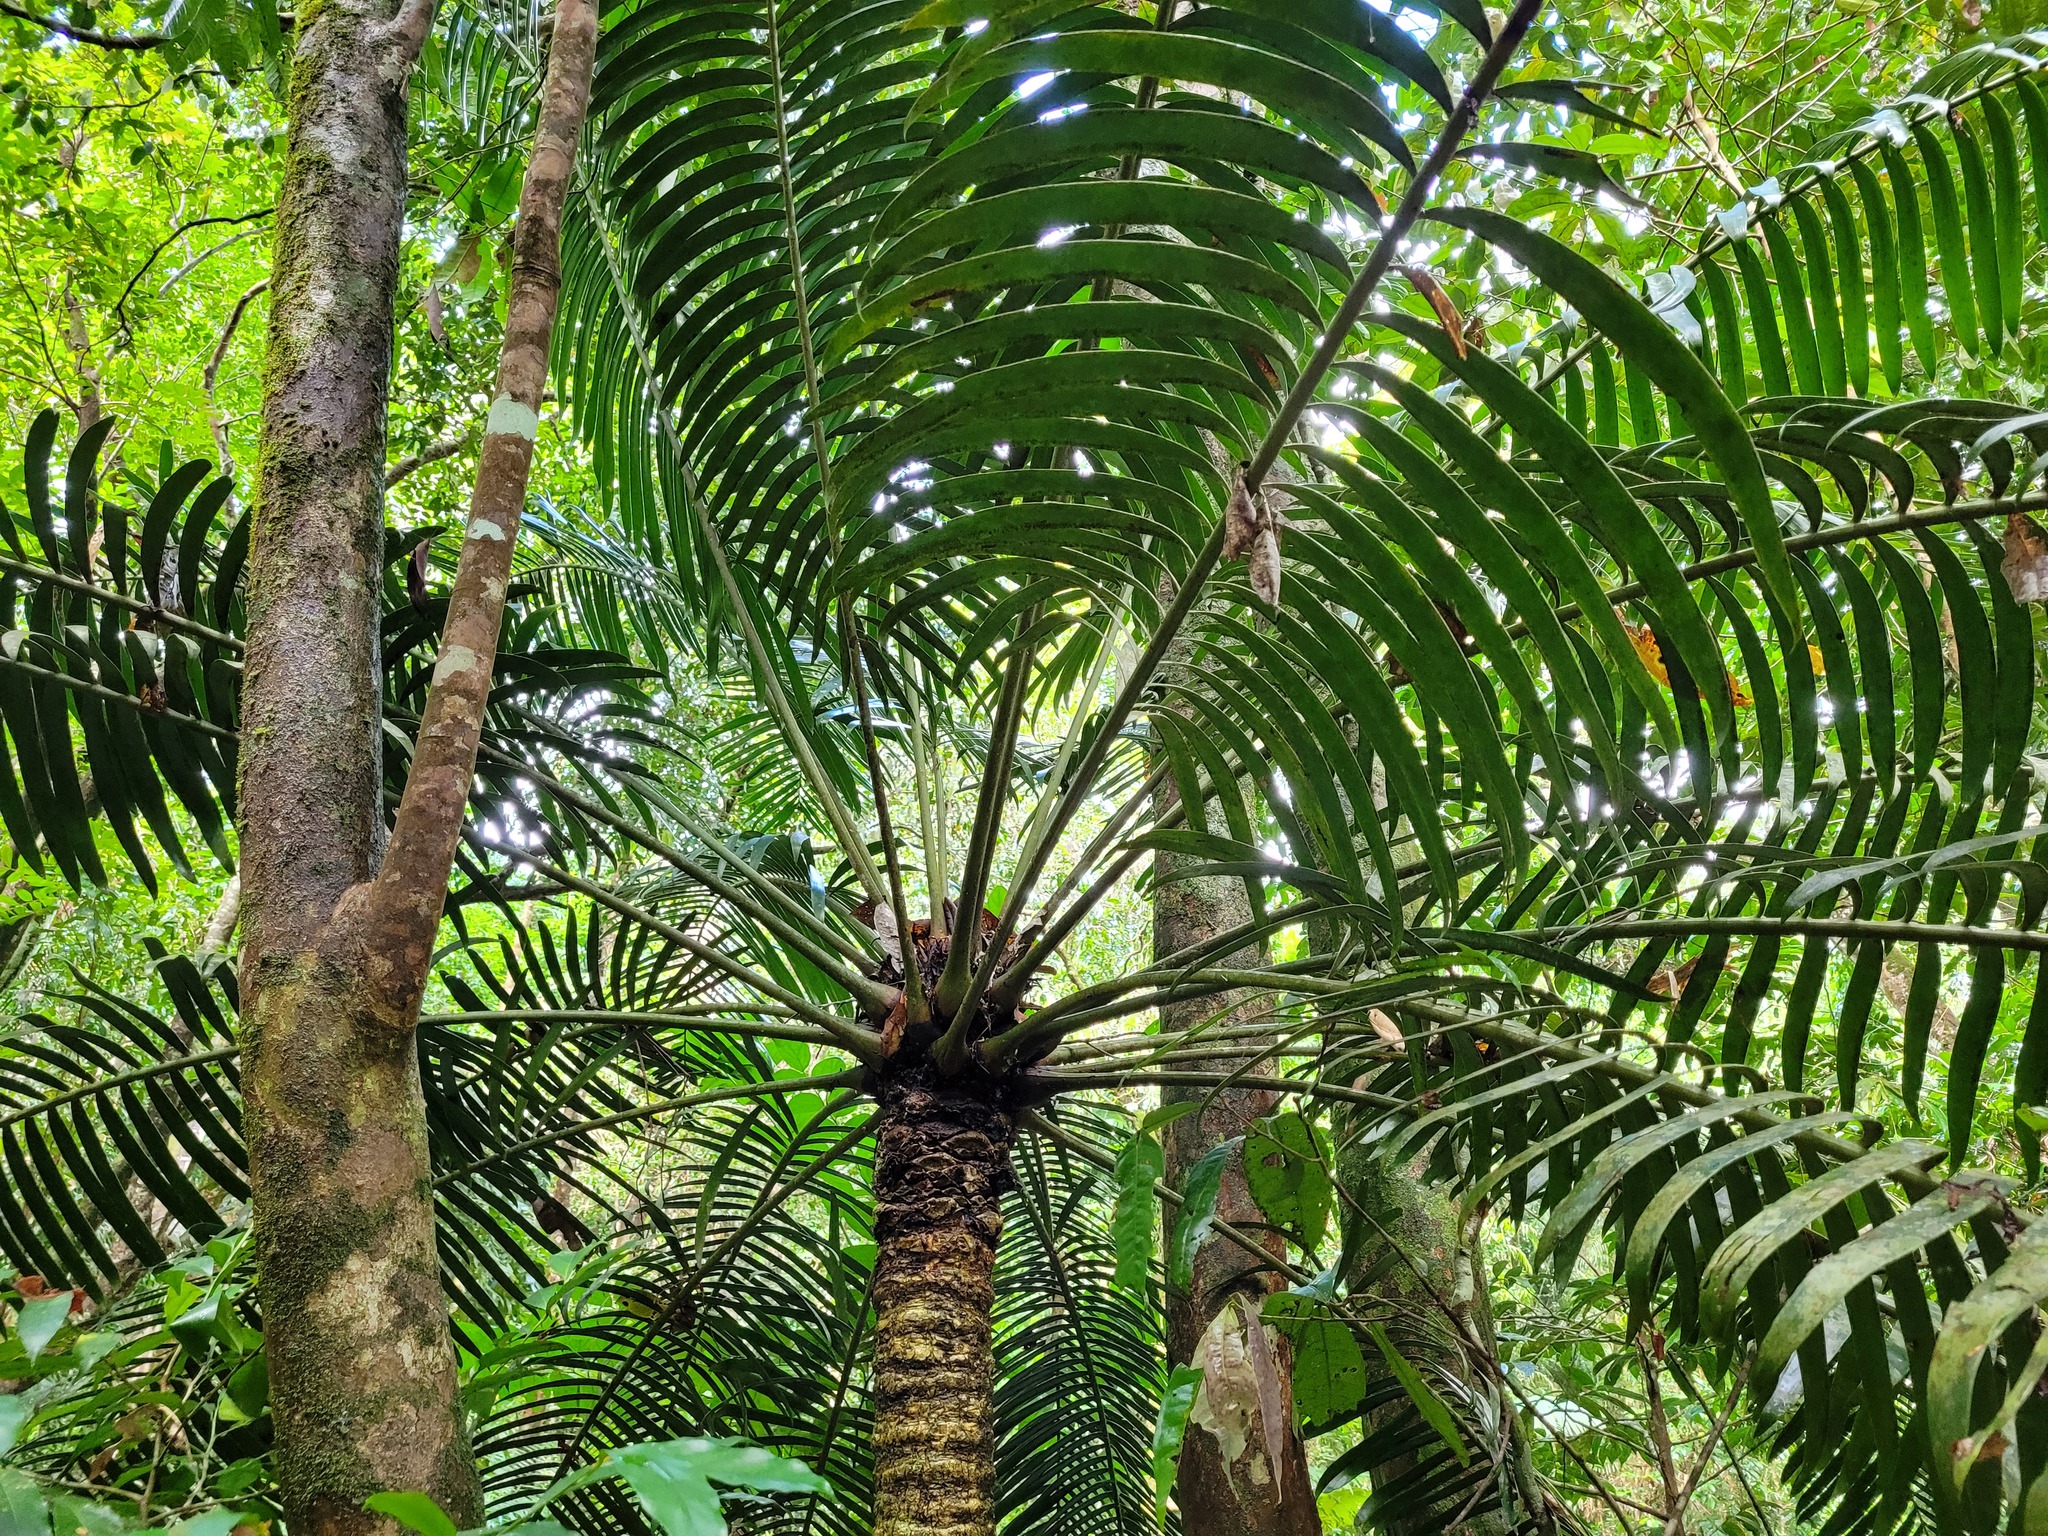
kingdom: Plantae
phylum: Tracheophyta
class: Cycadopsida
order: Cycadales
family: Zamiaceae
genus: Lepidozamia
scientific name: Lepidozamia hopei
